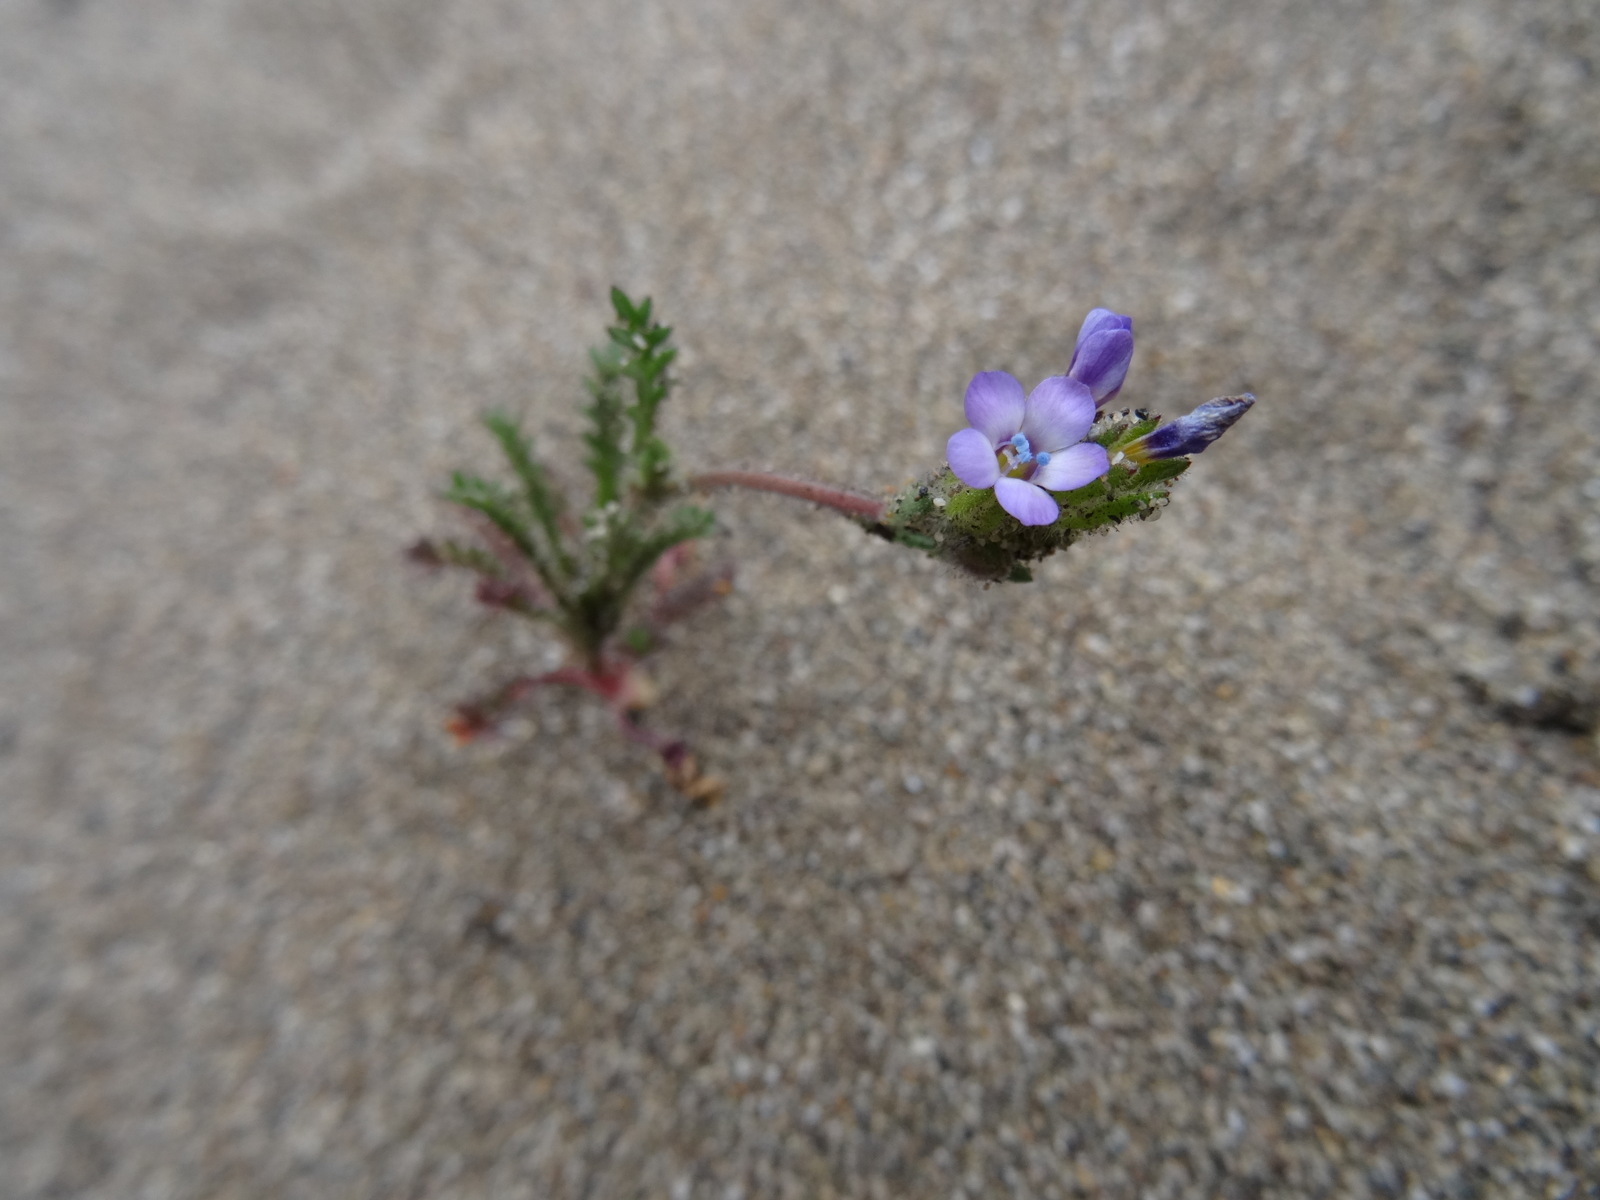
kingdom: Plantae
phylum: Tracheophyta
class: Magnoliopsida
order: Ericales
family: Polemoniaceae
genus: Gilia
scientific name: Gilia millefoliata
